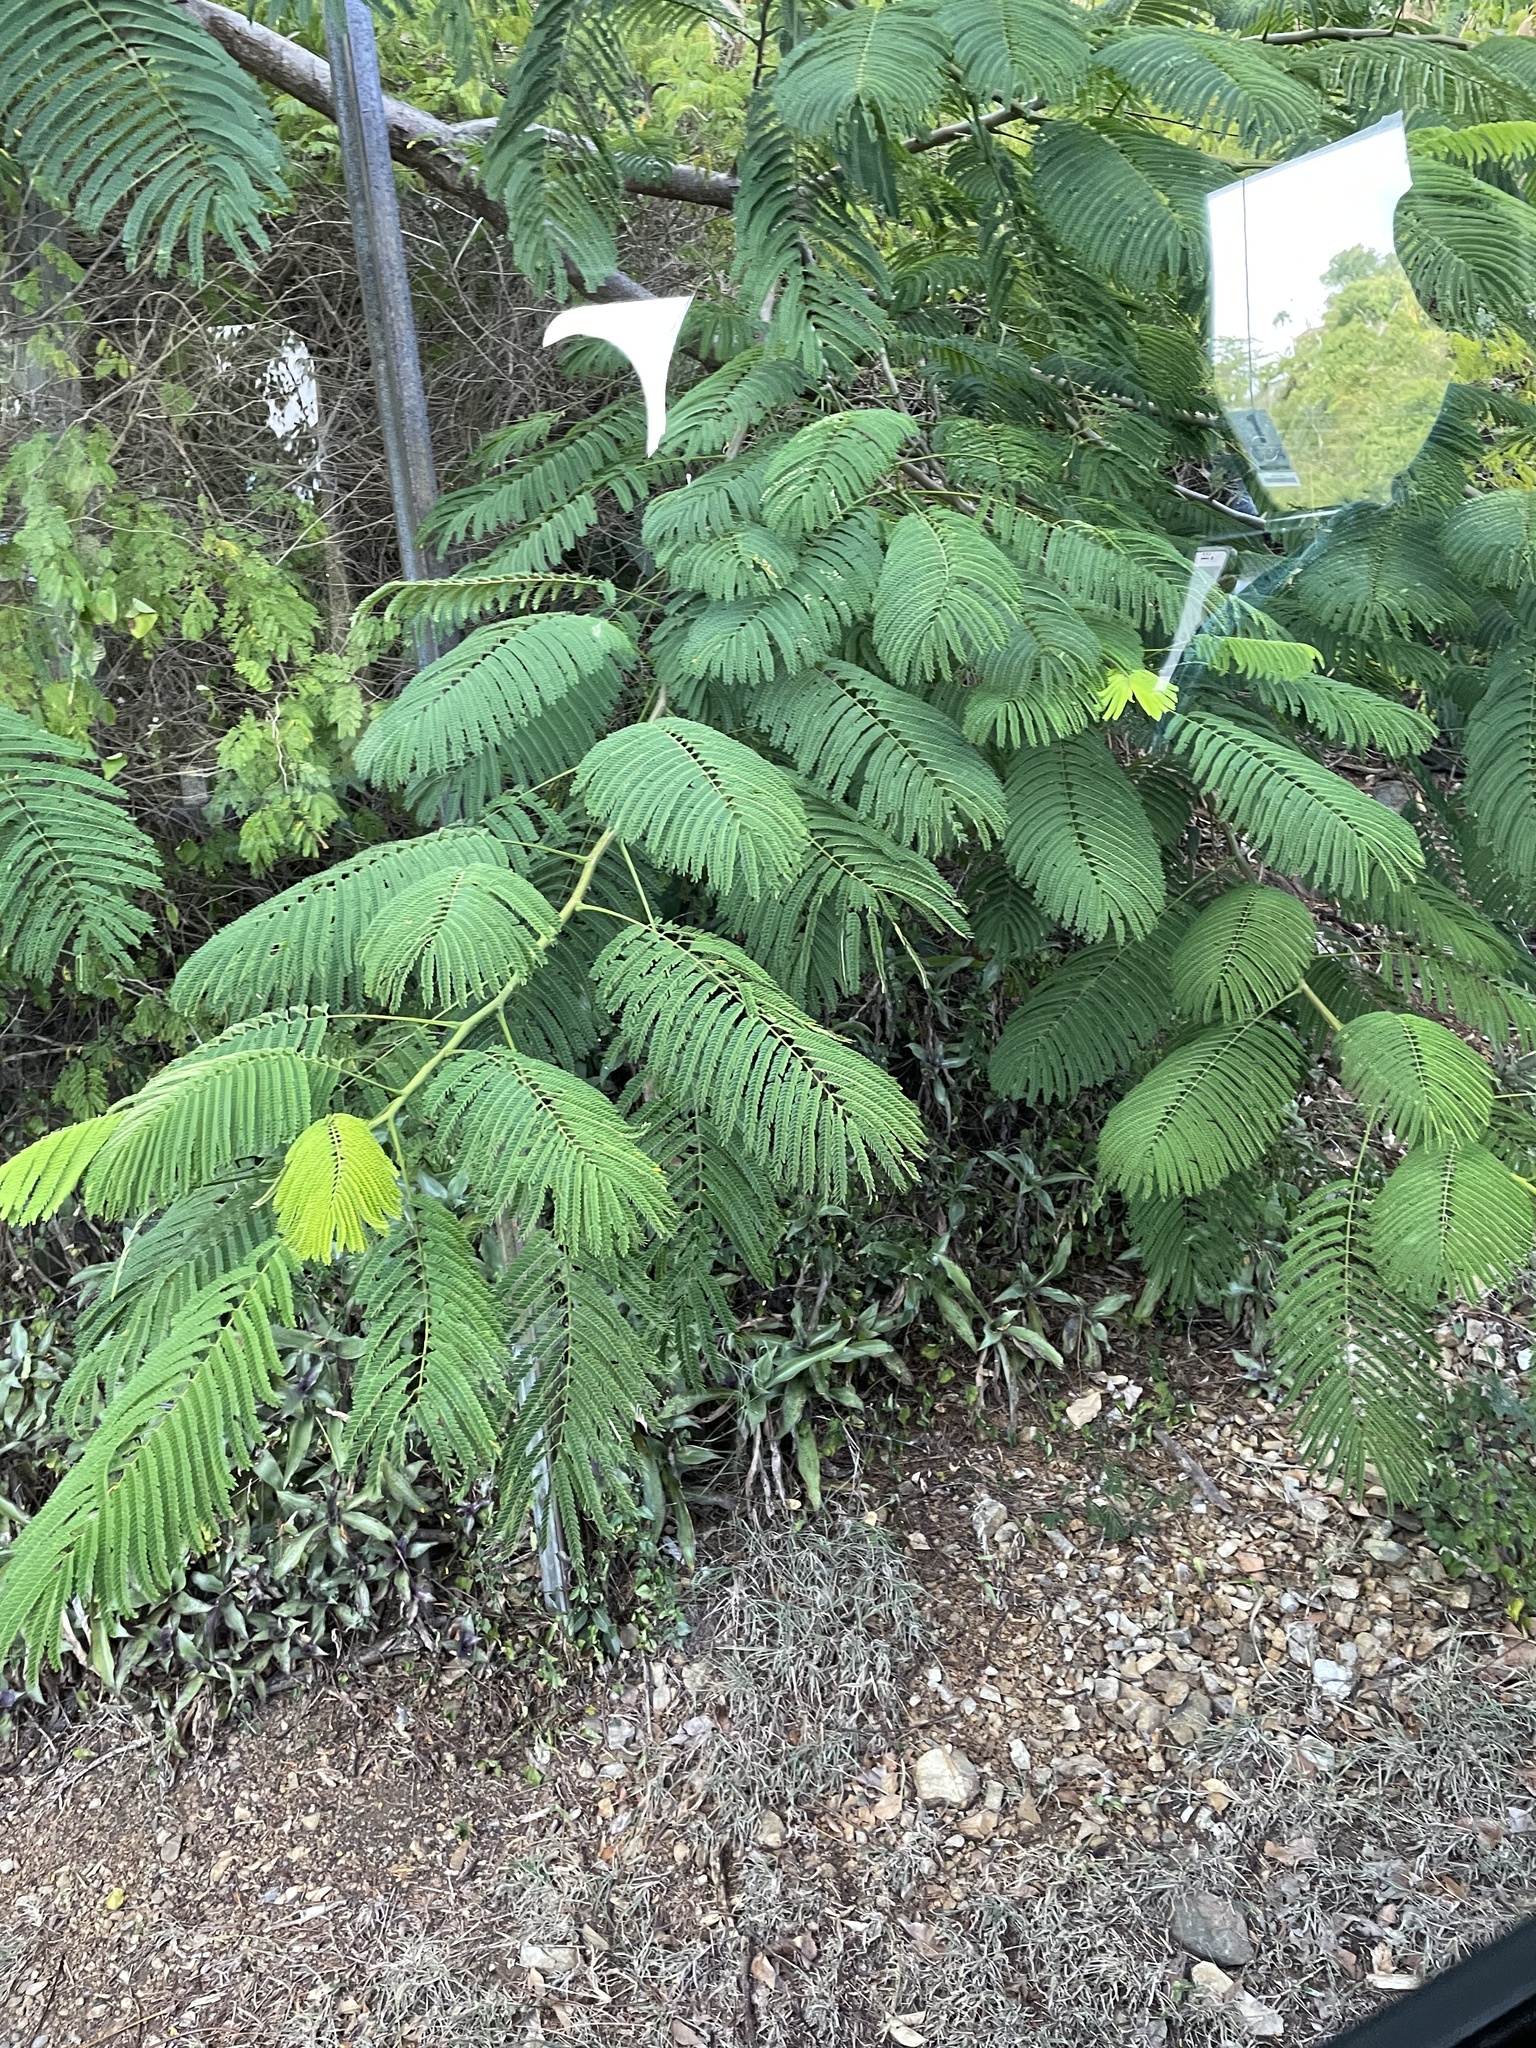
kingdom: Plantae
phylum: Tracheophyta
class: Magnoliopsida
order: Fabales
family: Fabaceae
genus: Delonix
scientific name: Delonix regia
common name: Royal poinciana
